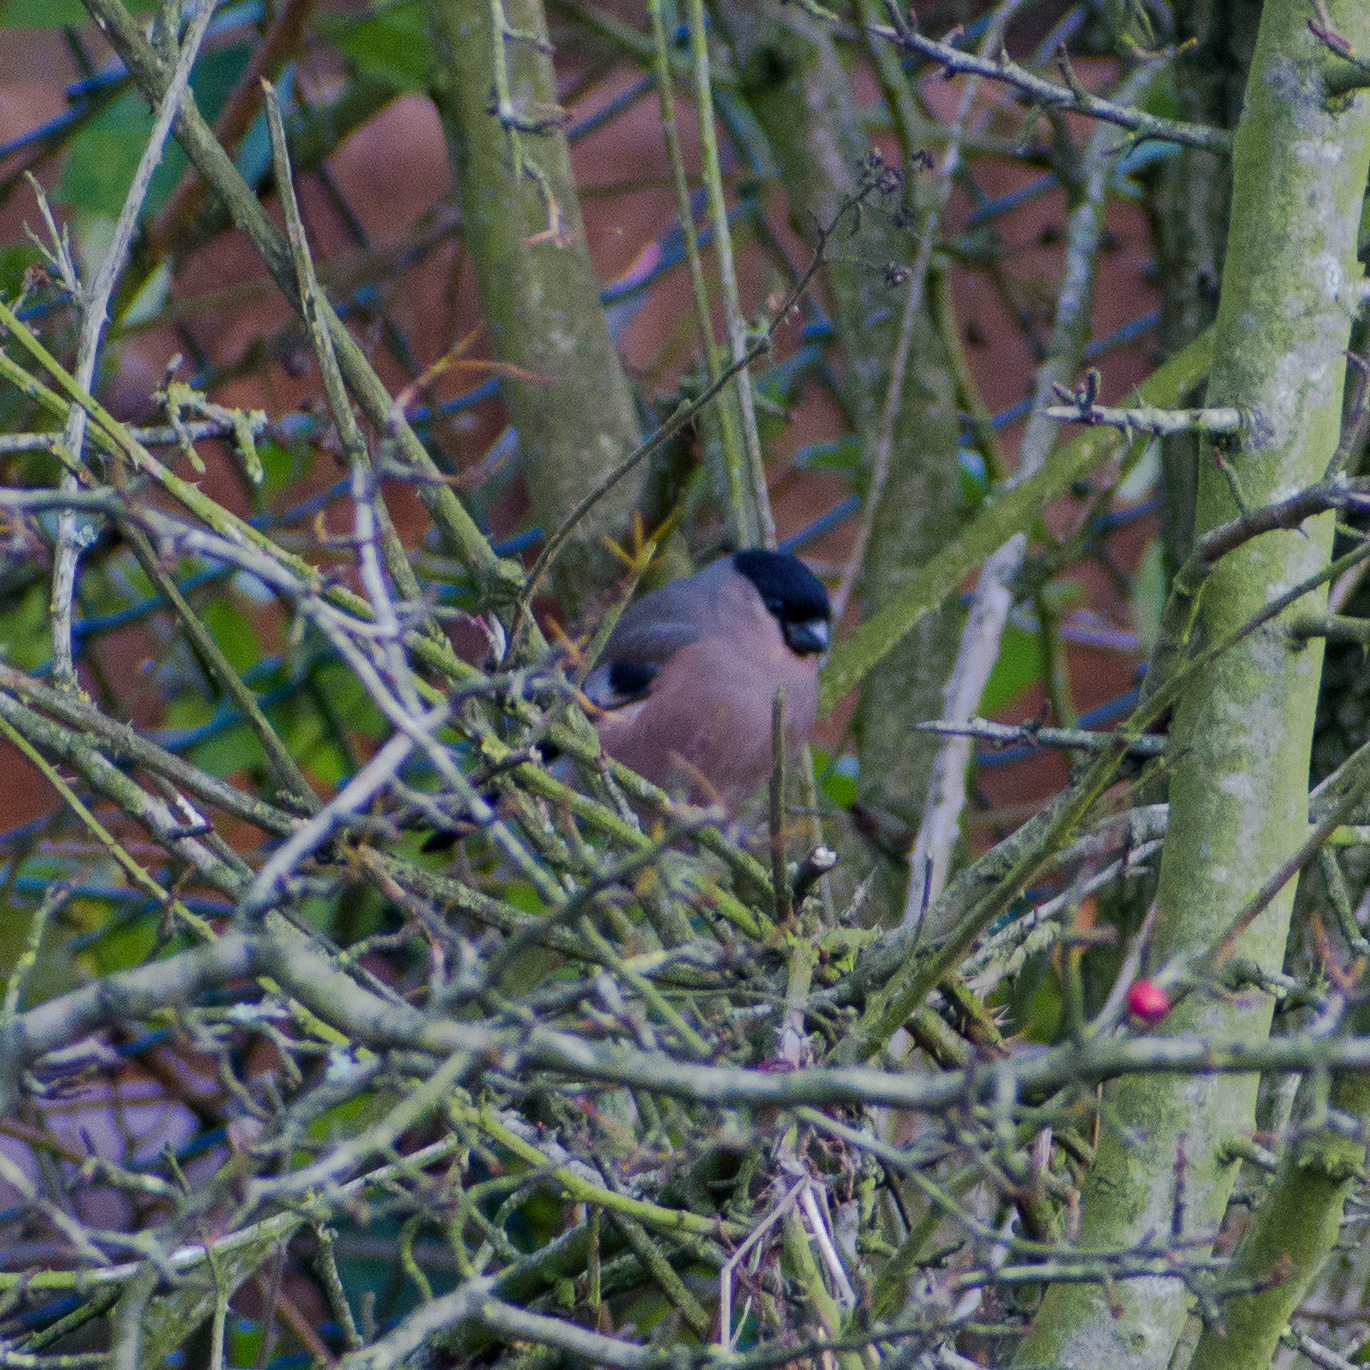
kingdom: Animalia
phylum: Chordata
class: Aves
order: Passeriformes
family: Fringillidae
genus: Pyrrhula
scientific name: Pyrrhula pyrrhula
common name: Eurasian bullfinch
